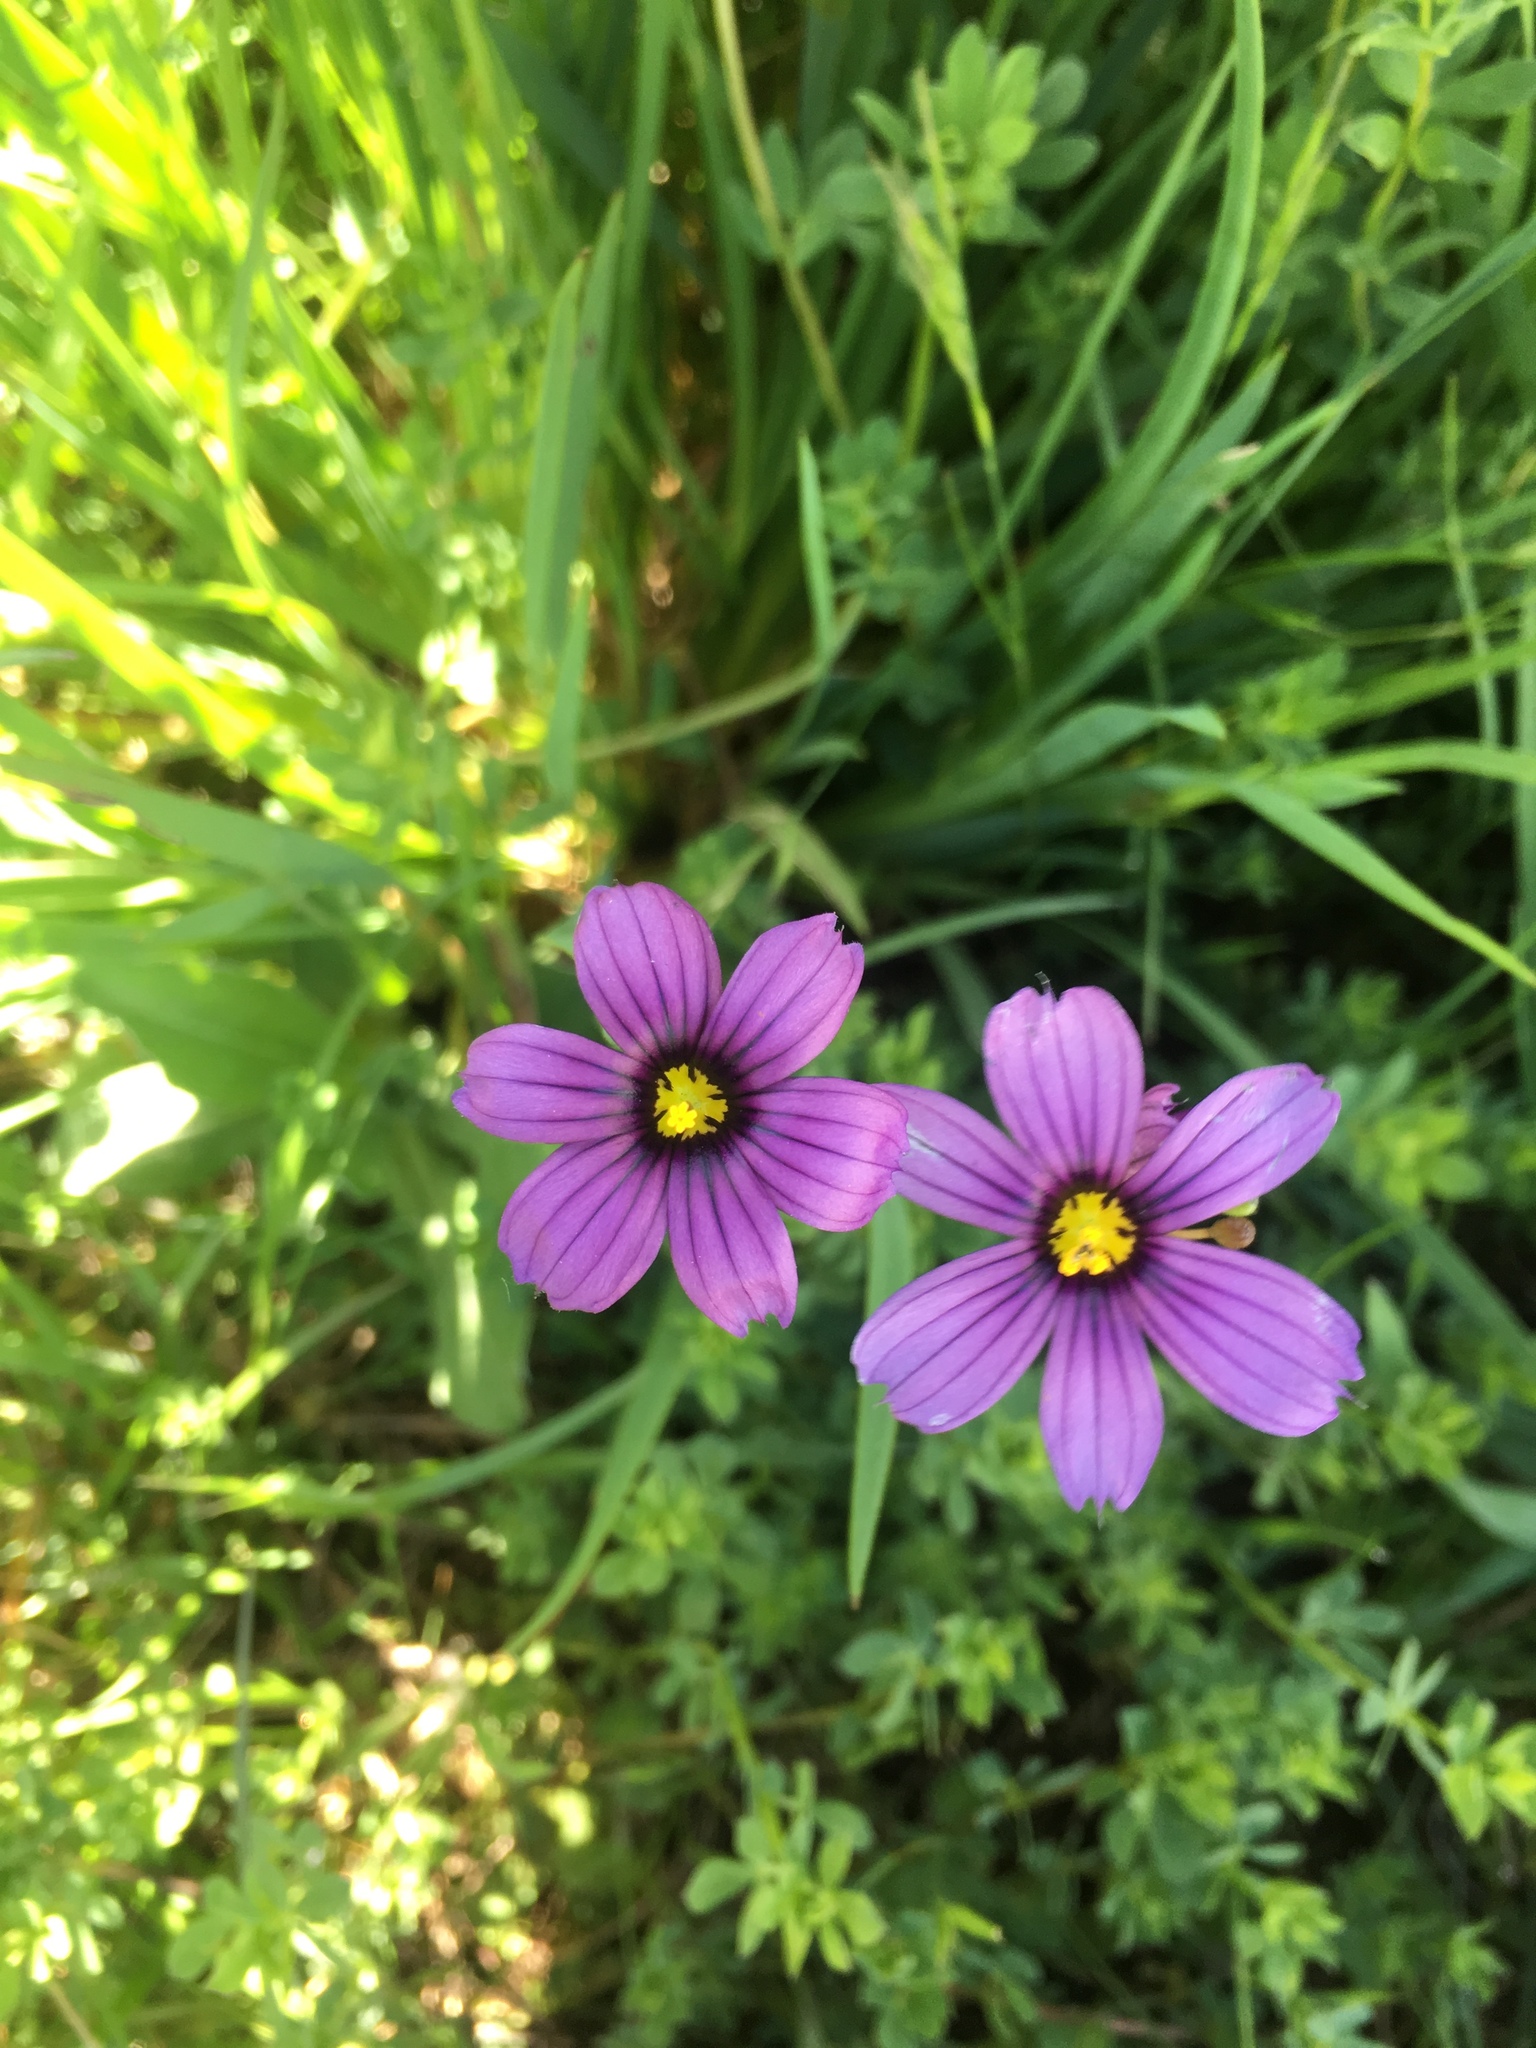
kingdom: Plantae
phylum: Tracheophyta
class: Liliopsida
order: Asparagales
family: Iridaceae
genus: Sisyrinchium
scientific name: Sisyrinchium bellum
